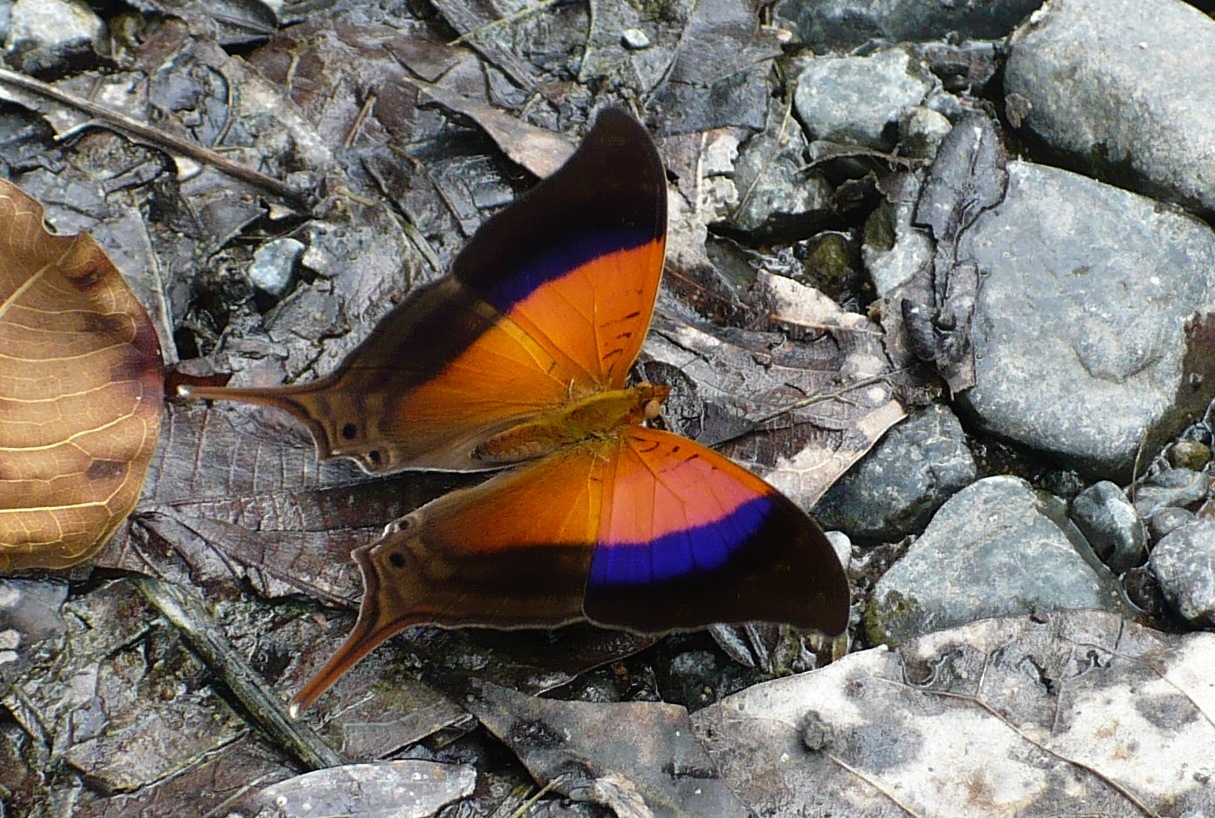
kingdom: Animalia
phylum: Arthropoda
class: Insecta
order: Lepidoptera
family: Nymphalidae
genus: Marpesia
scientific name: Marpesia furcula
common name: Sunset daggerwing
